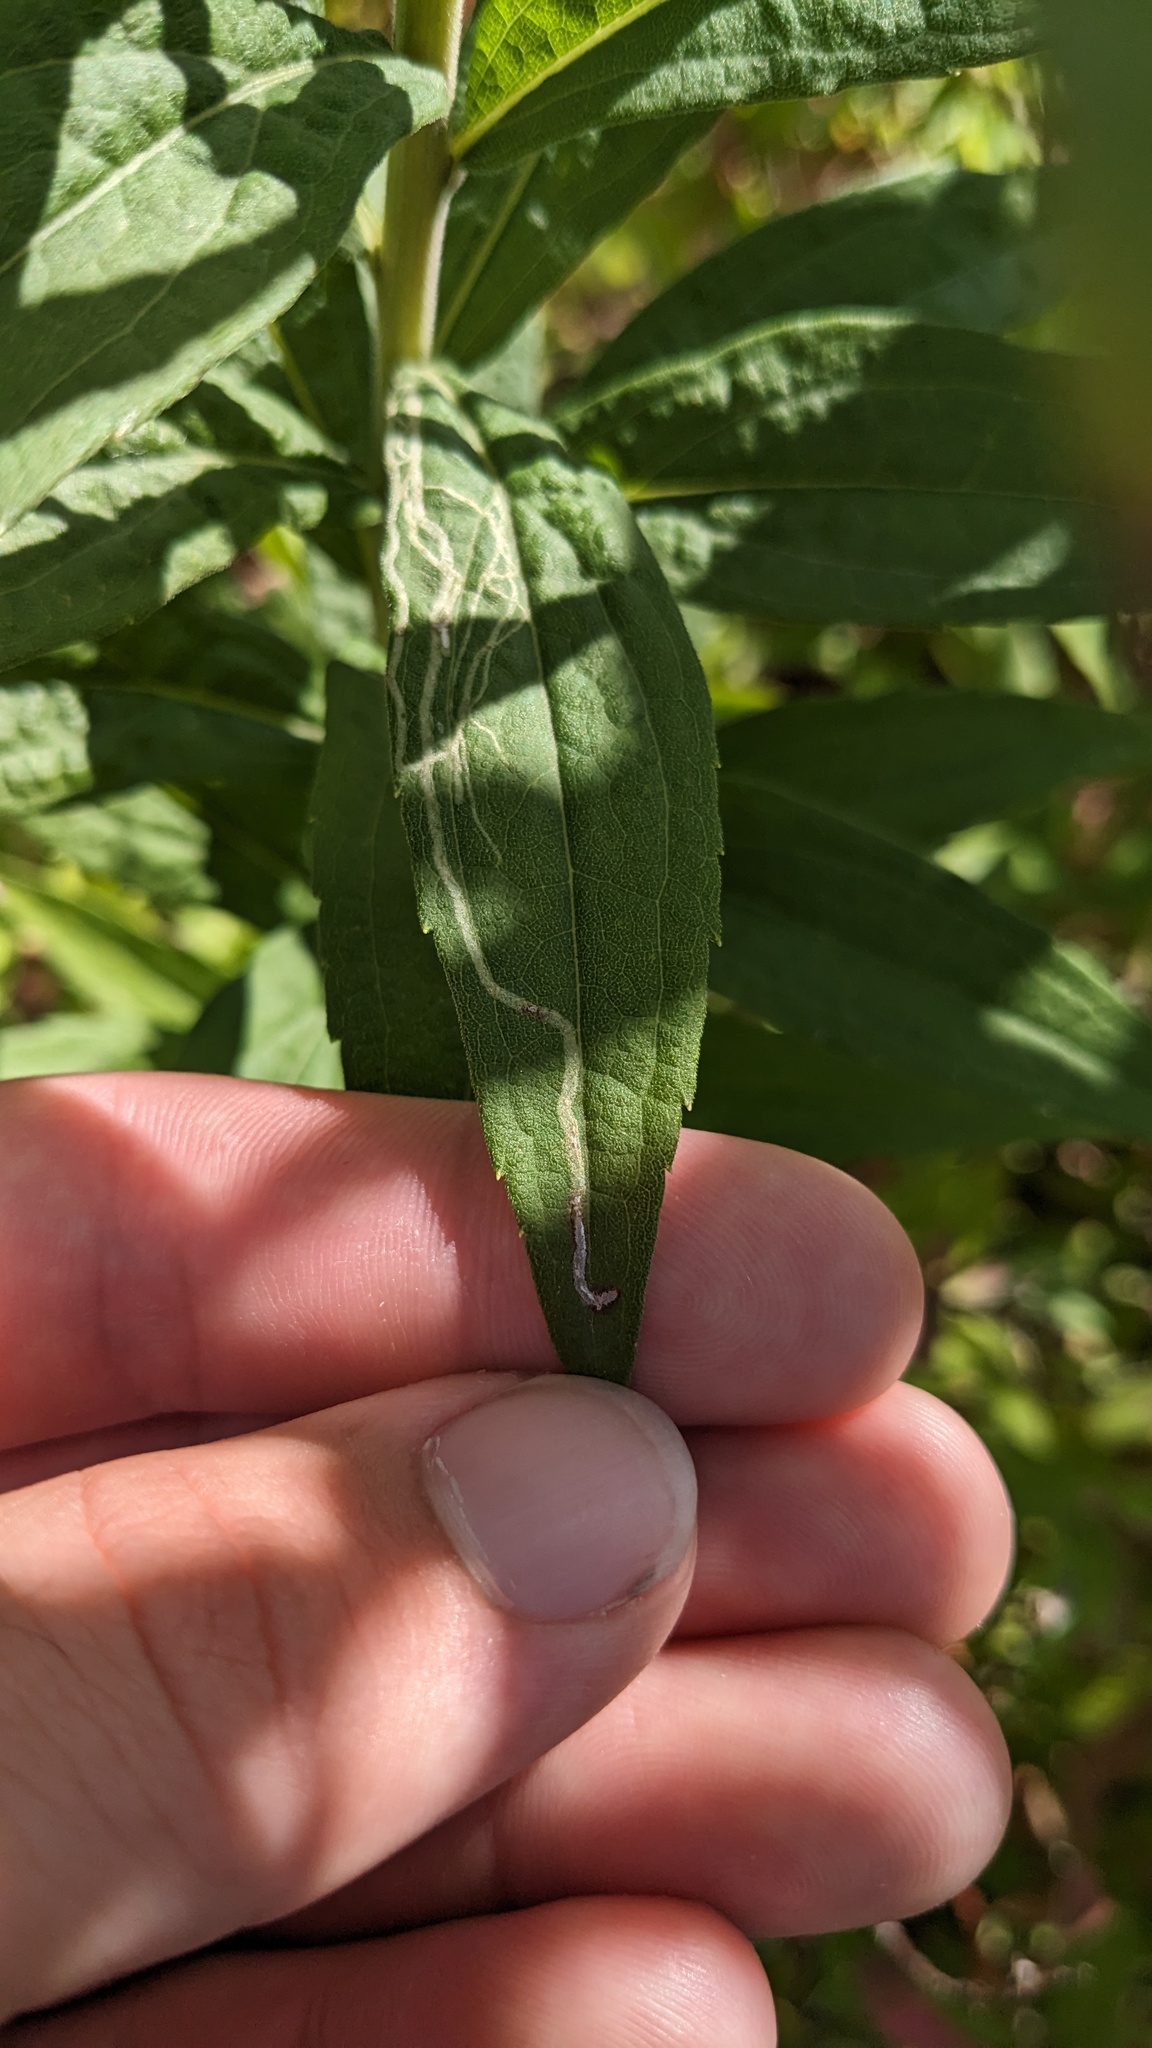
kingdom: Animalia
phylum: Arthropoda
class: Insecta
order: Diptera
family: Agromyzidae
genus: Ophiomyia
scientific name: Ophiomyia maura
